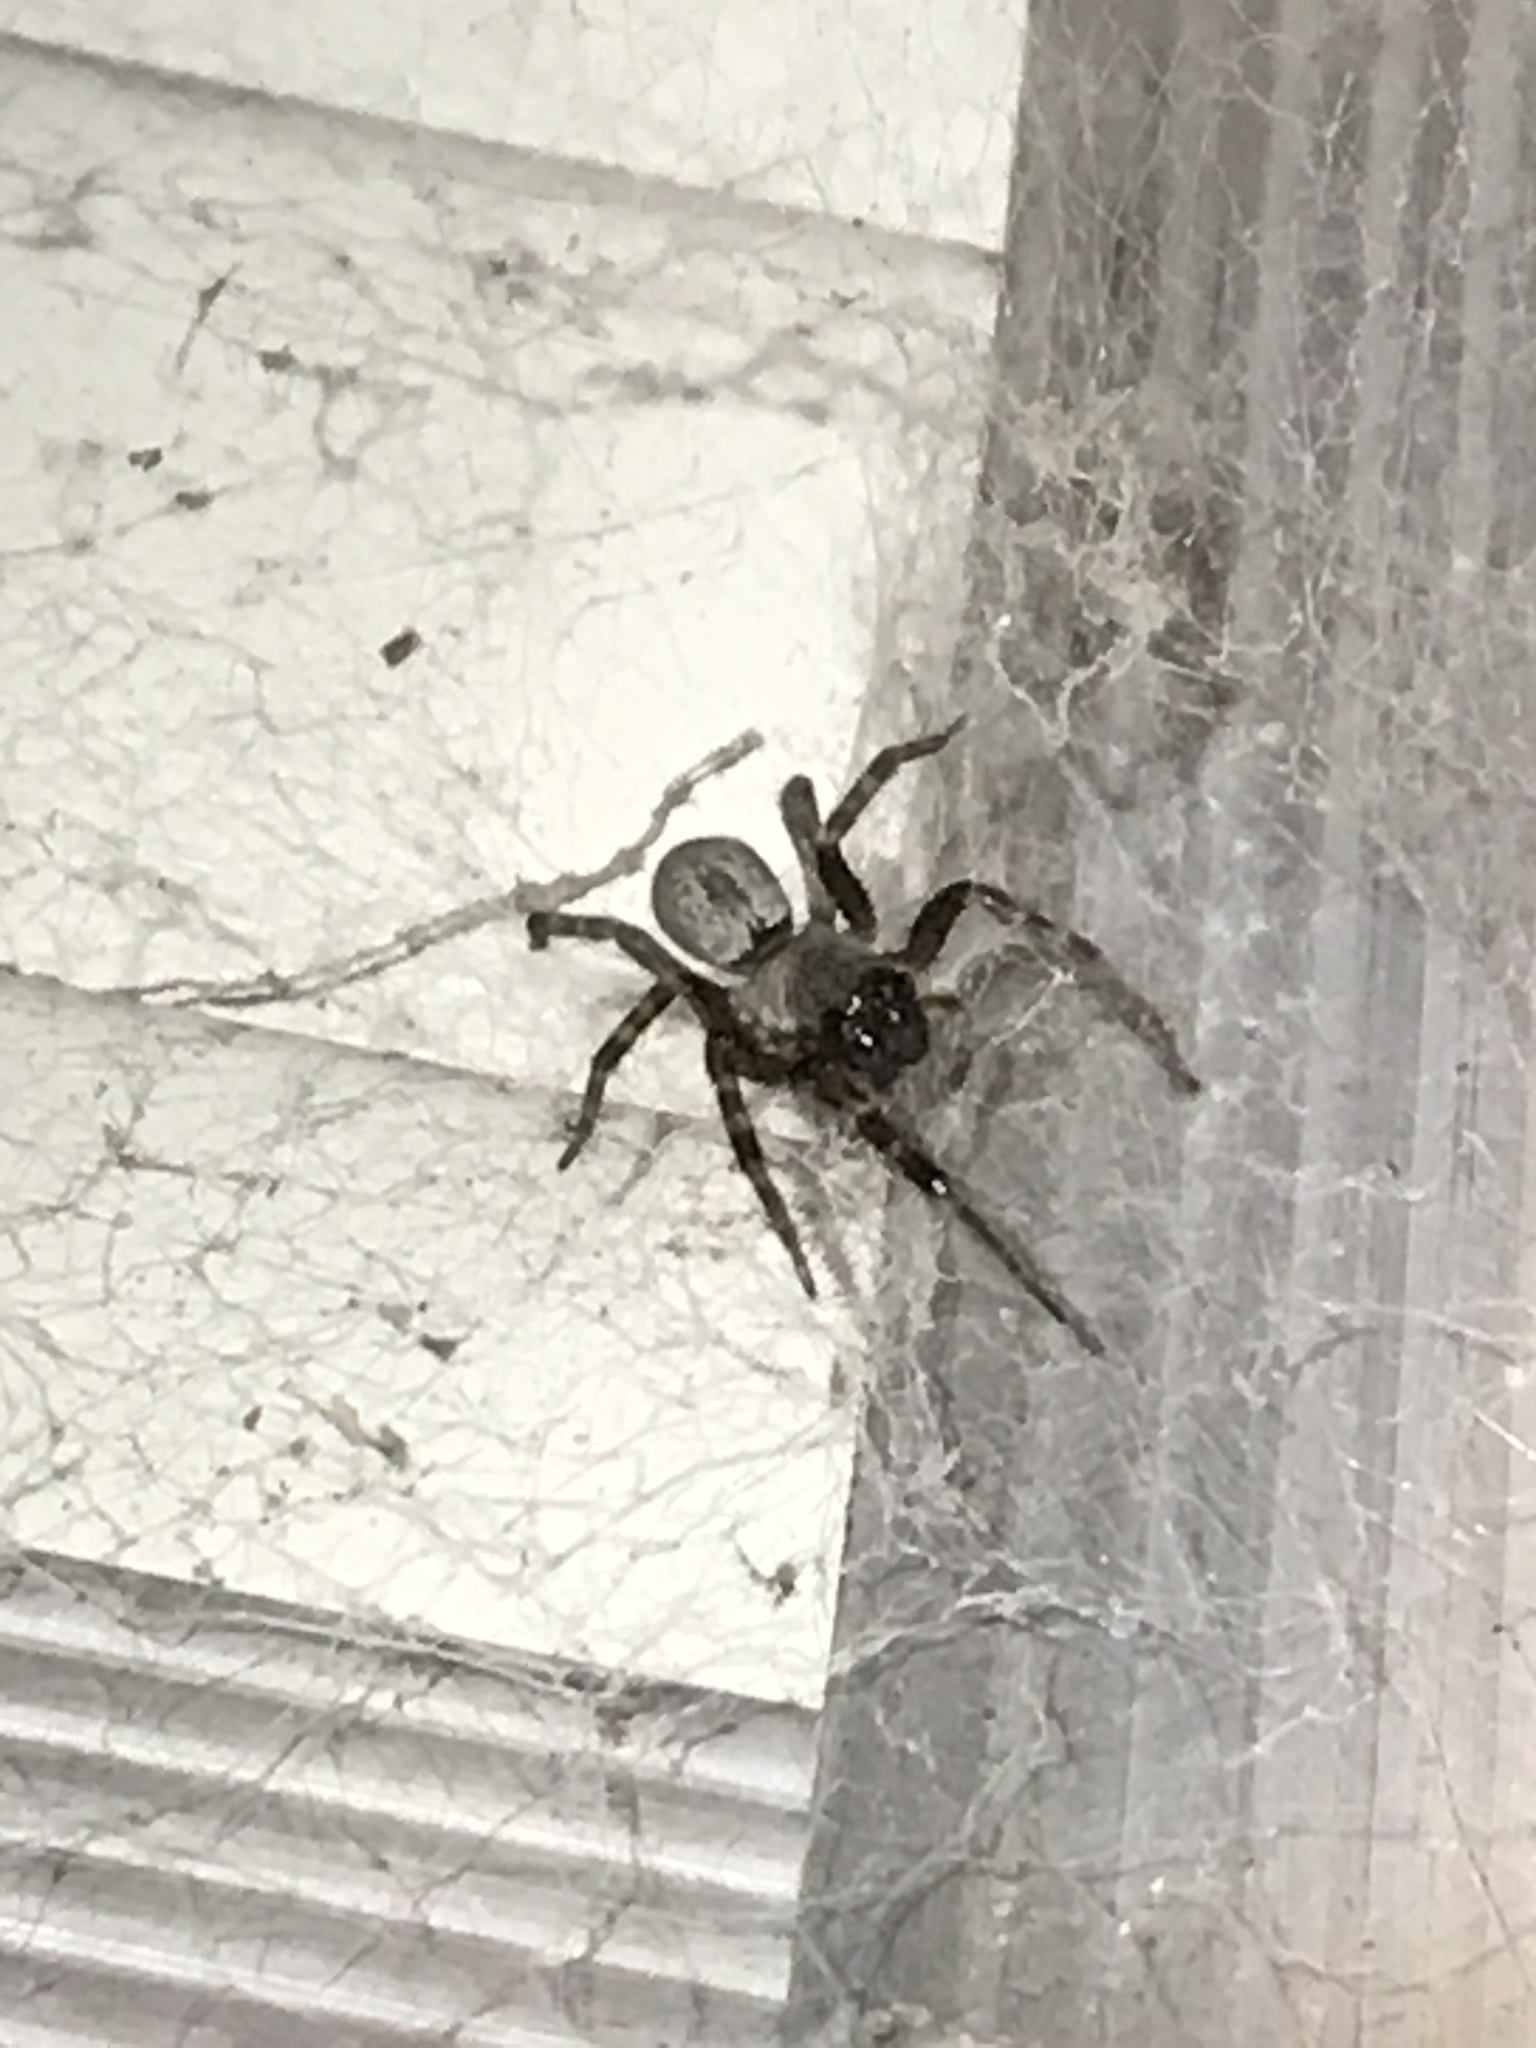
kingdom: Animalia
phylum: Arthropoda
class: Arachnida
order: Araneae
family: Desidae
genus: Badumna
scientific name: Badumna longinqua
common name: Gray house spider
